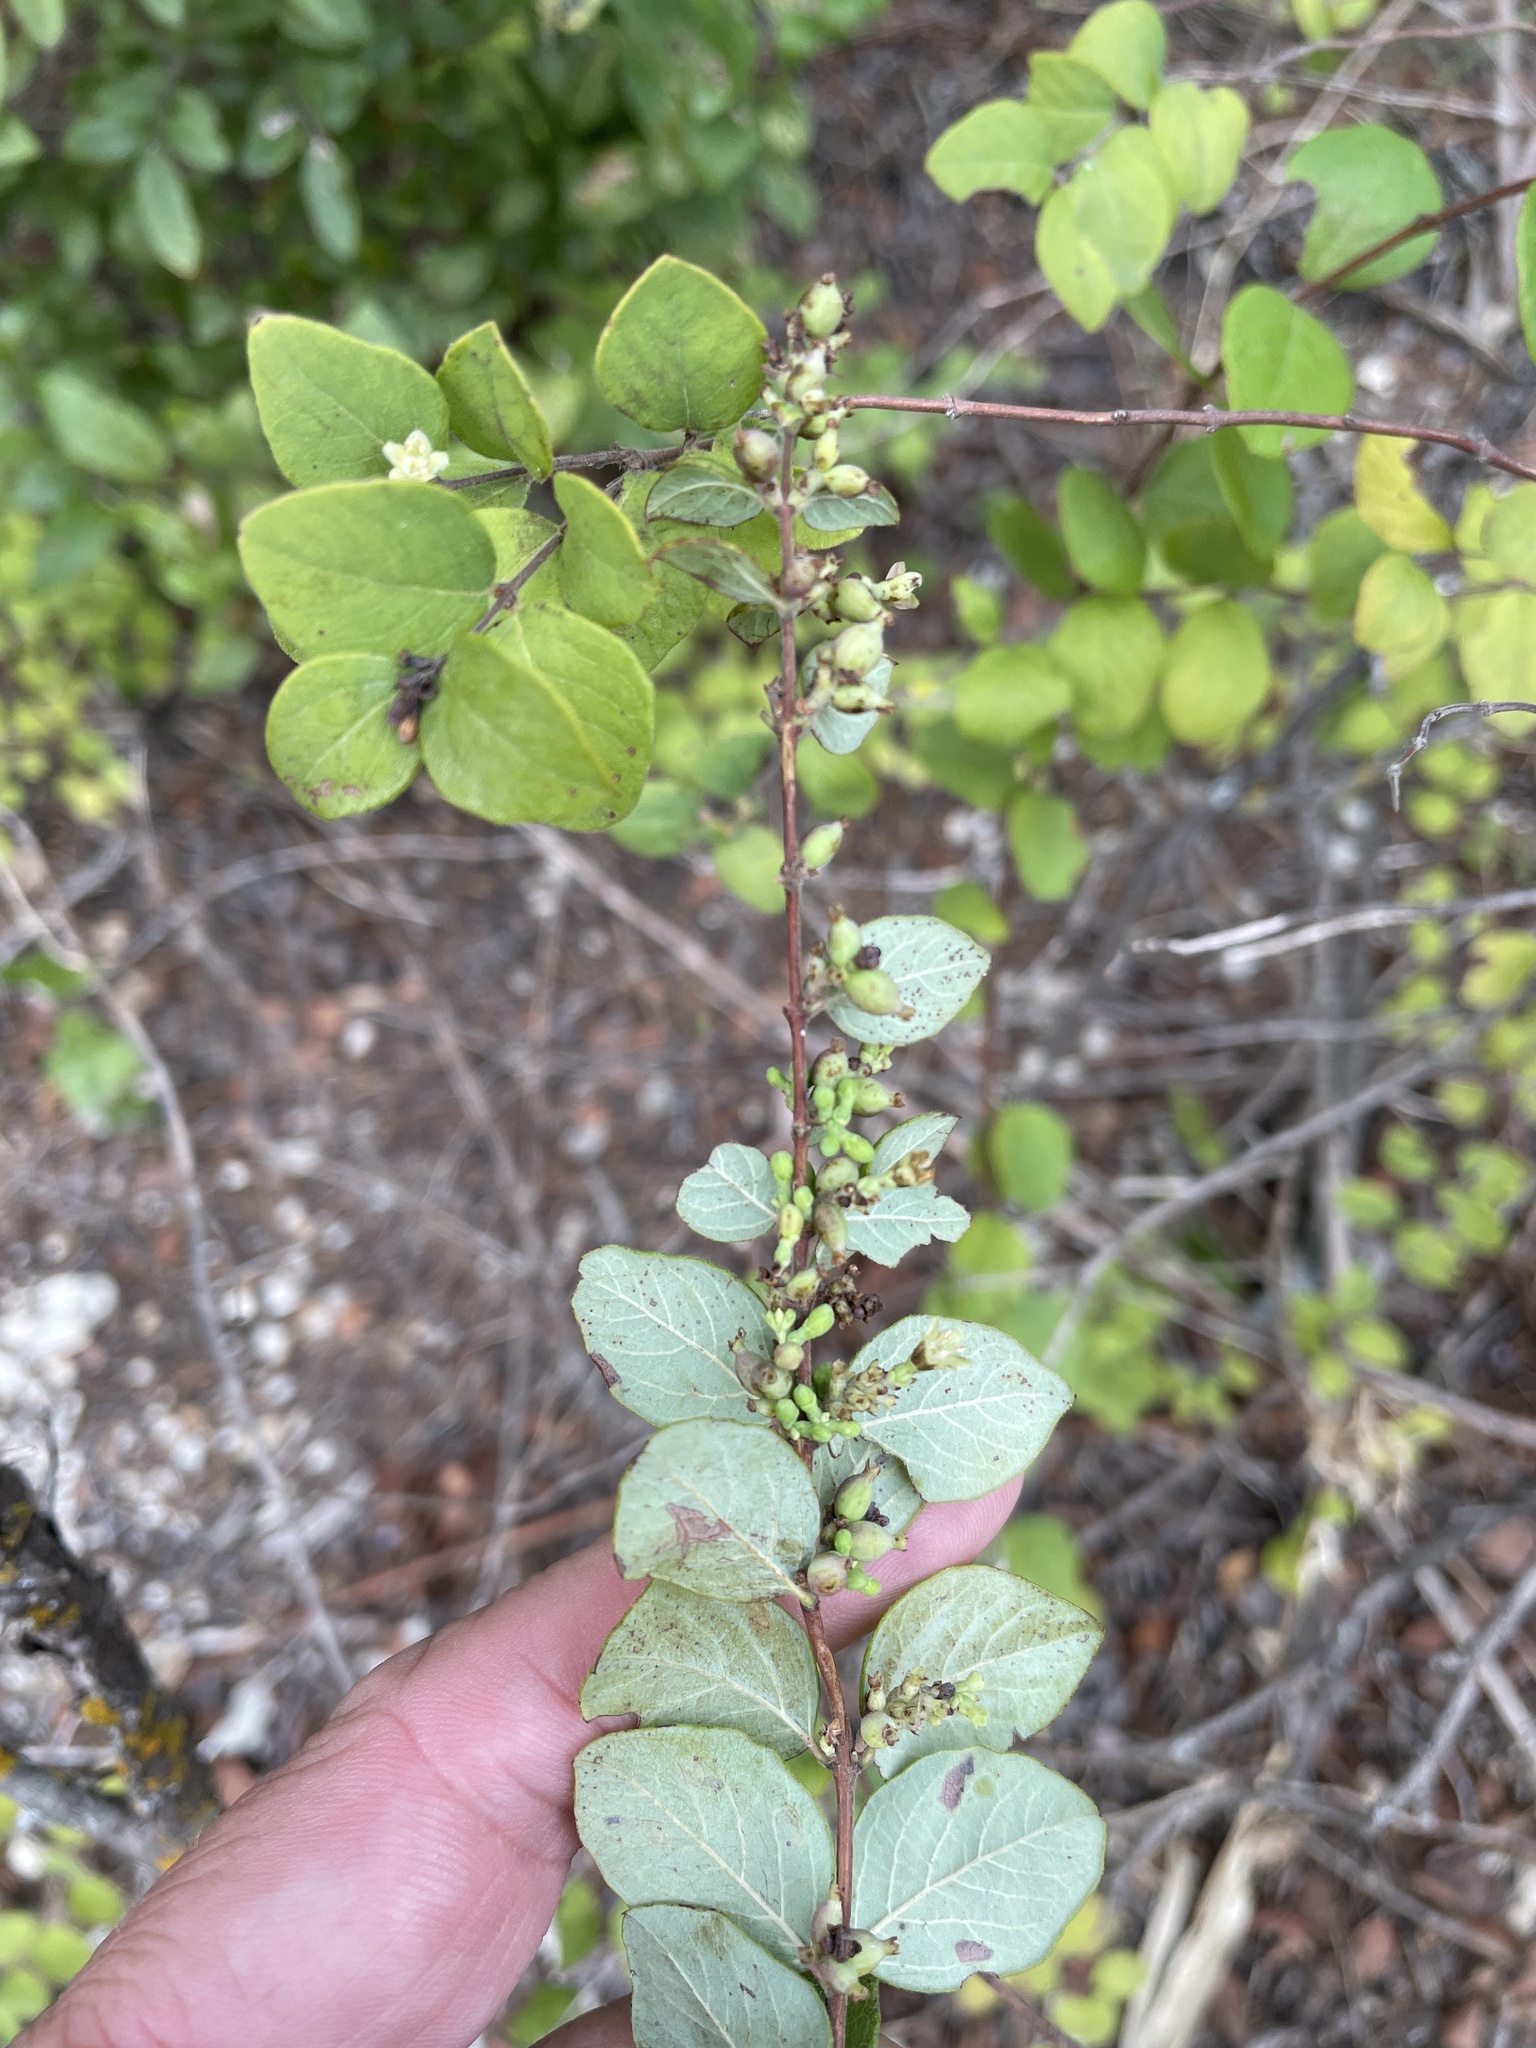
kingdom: Plantae
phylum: Tracheophyta
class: Magnoliopsida
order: Dipsacales
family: Caprifoliaceae
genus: Symphoricarpos
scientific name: Symphoricarpos orbiculatus
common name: Coralberry
